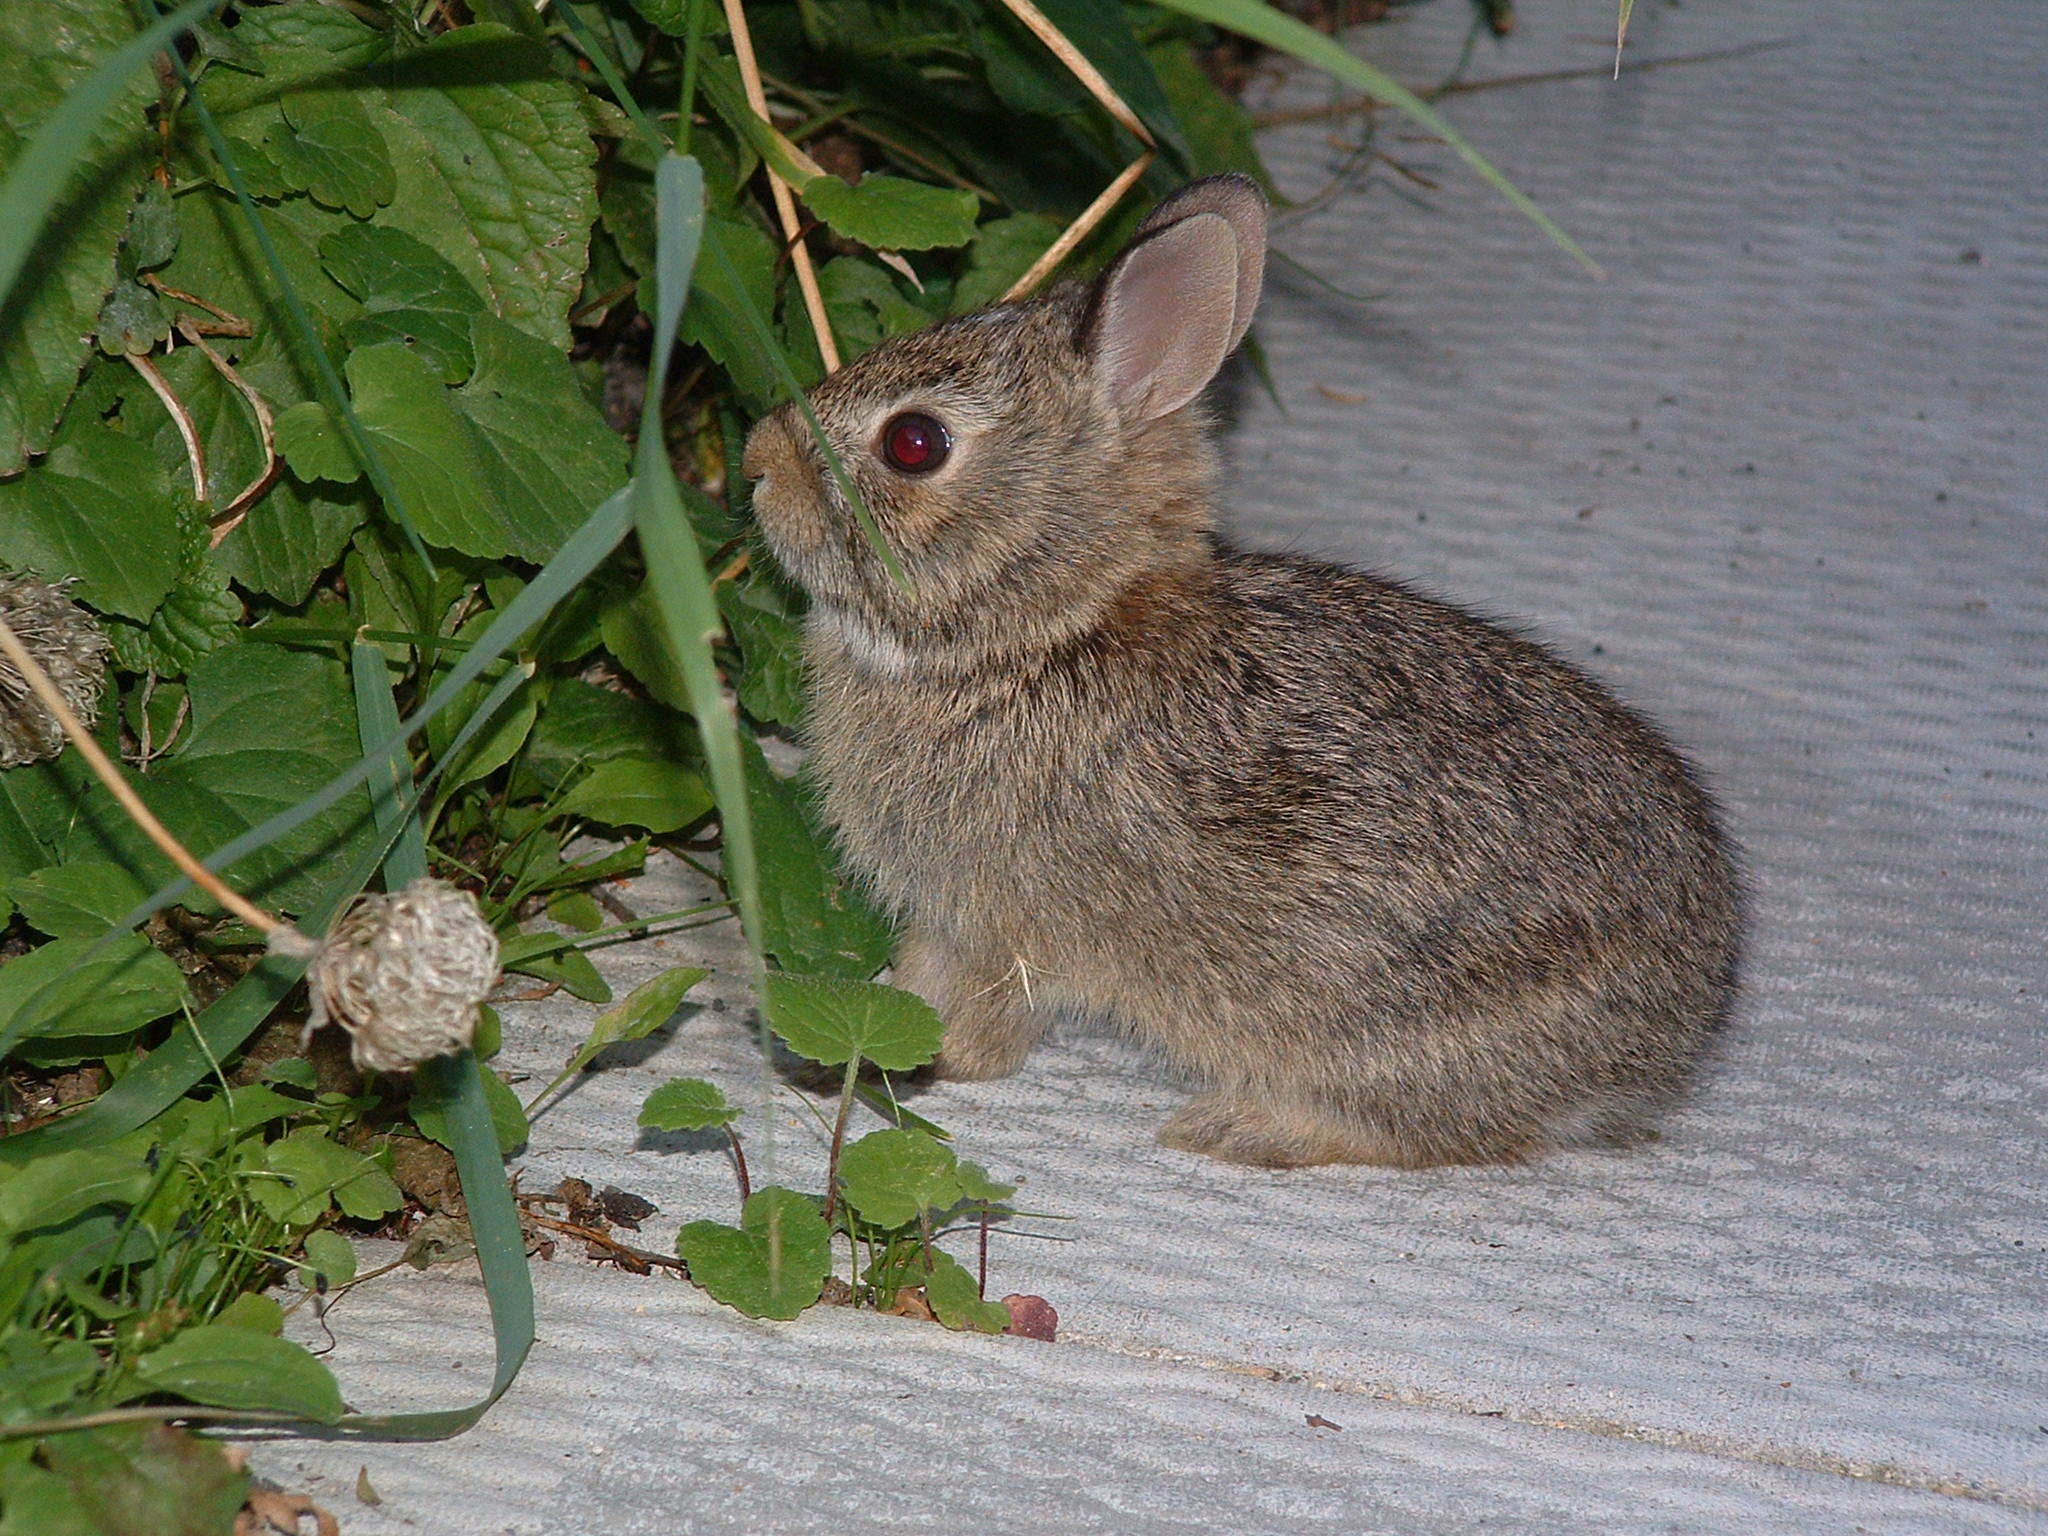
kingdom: Animalia
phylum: Chordata
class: Mammalia
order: Lagomorpha
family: Leporidae
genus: Sylvilagus
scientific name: Sylvilagus floridanus
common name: Eastern cottontail
